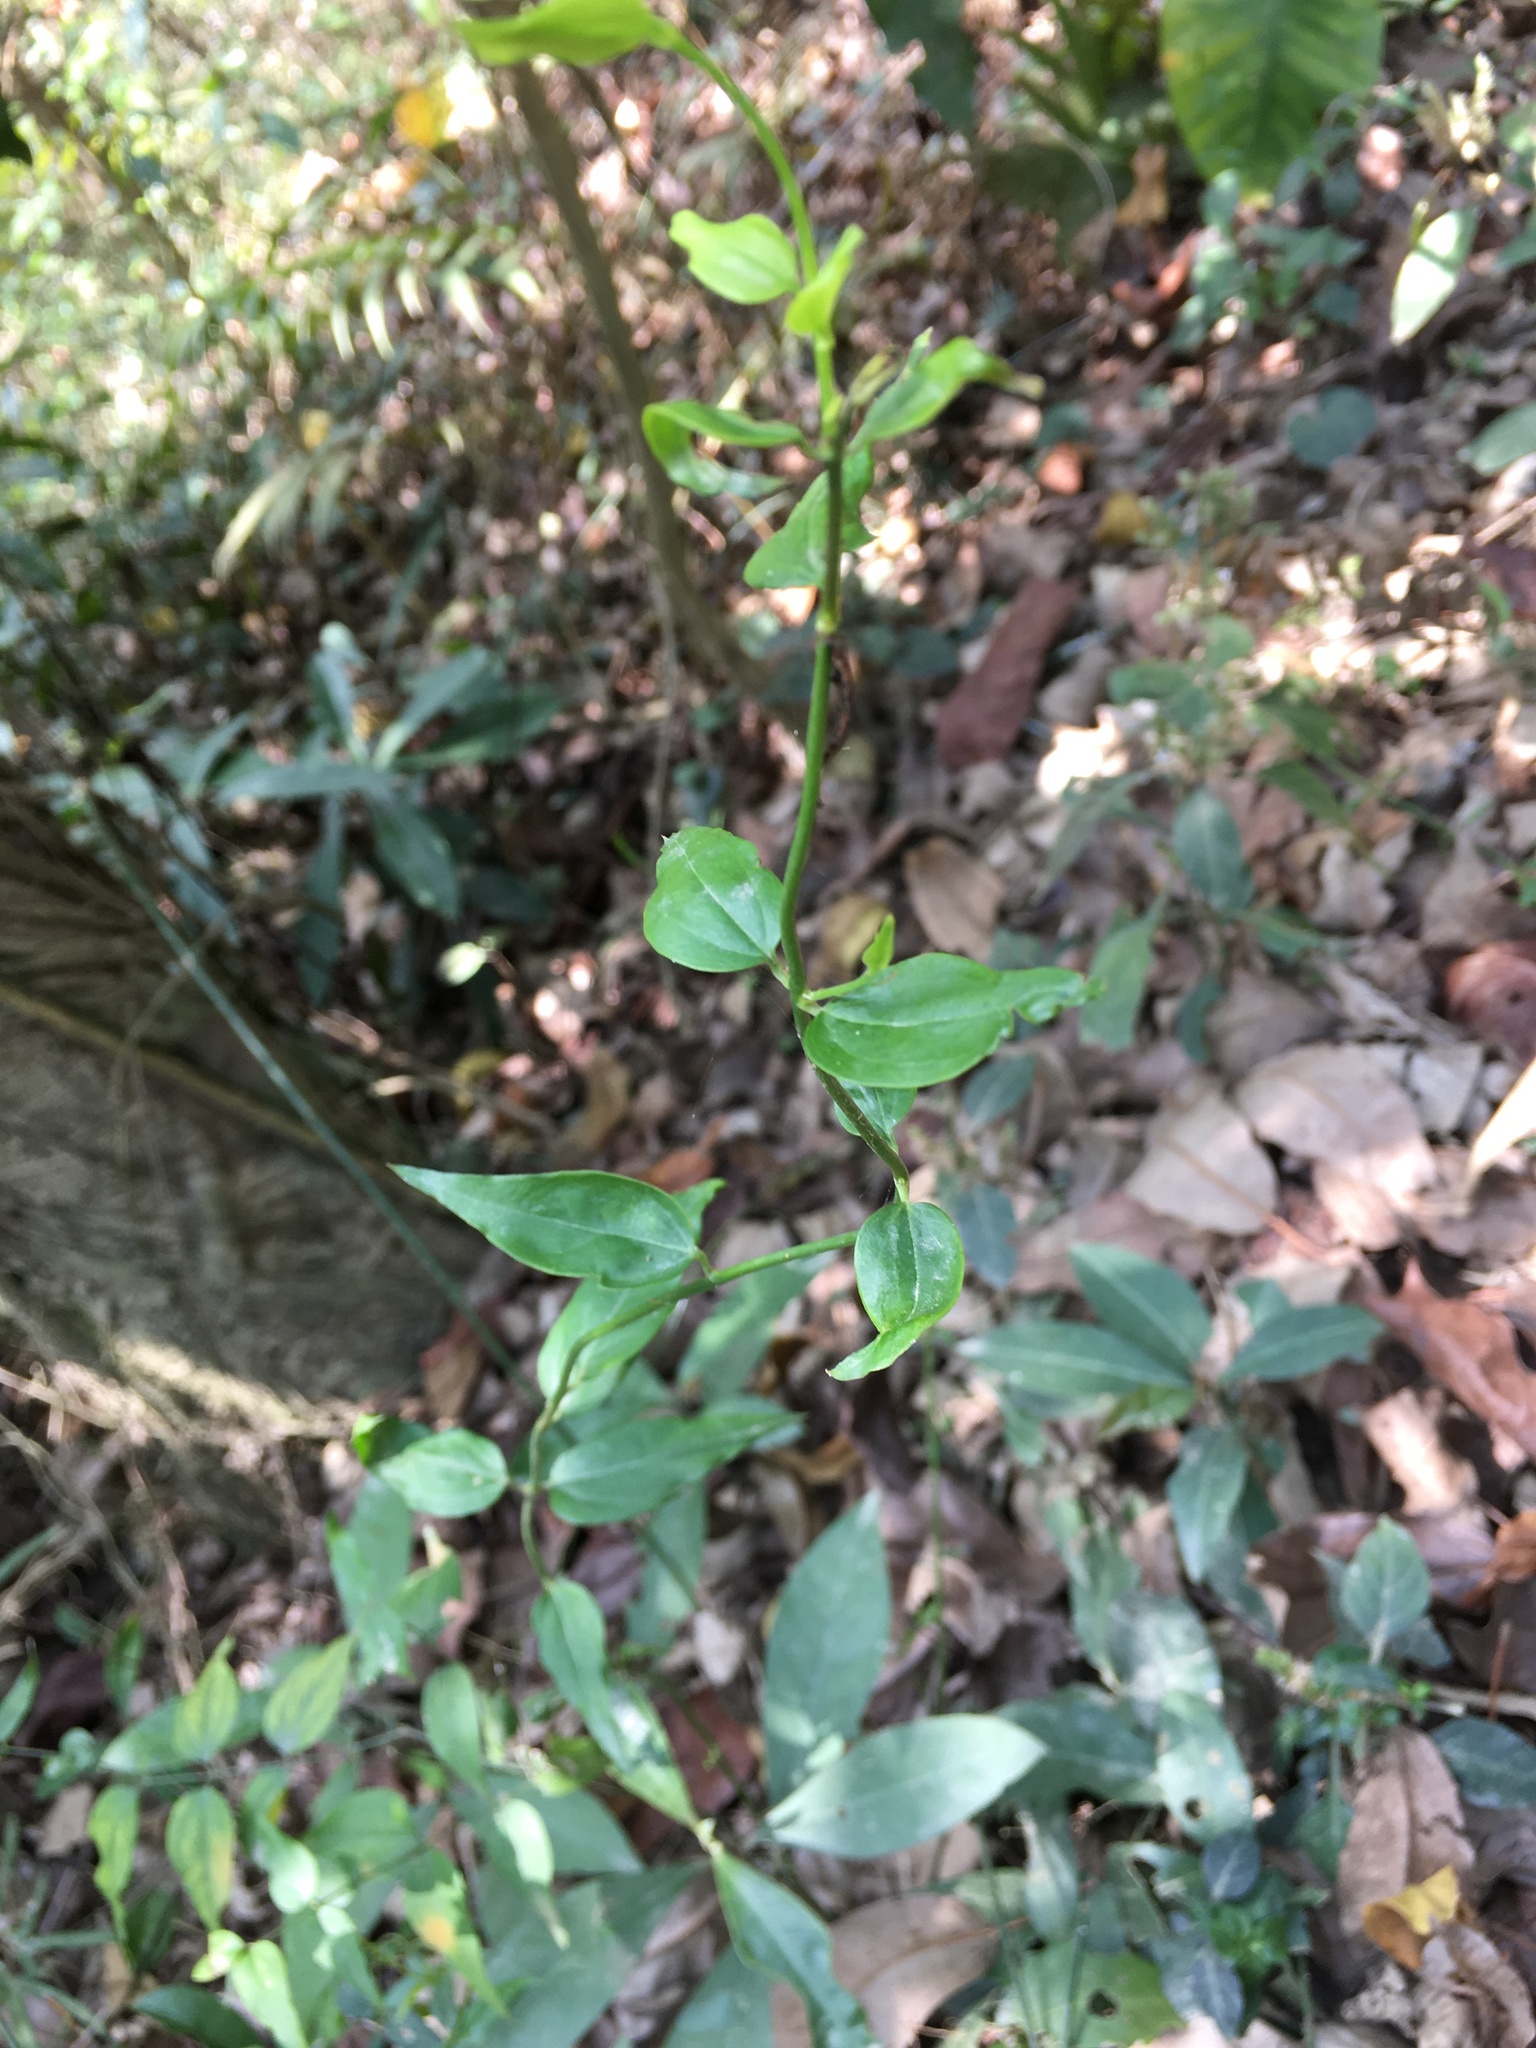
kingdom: Plantae
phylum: Tracheophyta
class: Magnoliopsida
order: Lamiales
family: Oleaceae
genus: Jasminum
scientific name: Jasminum nervosum
